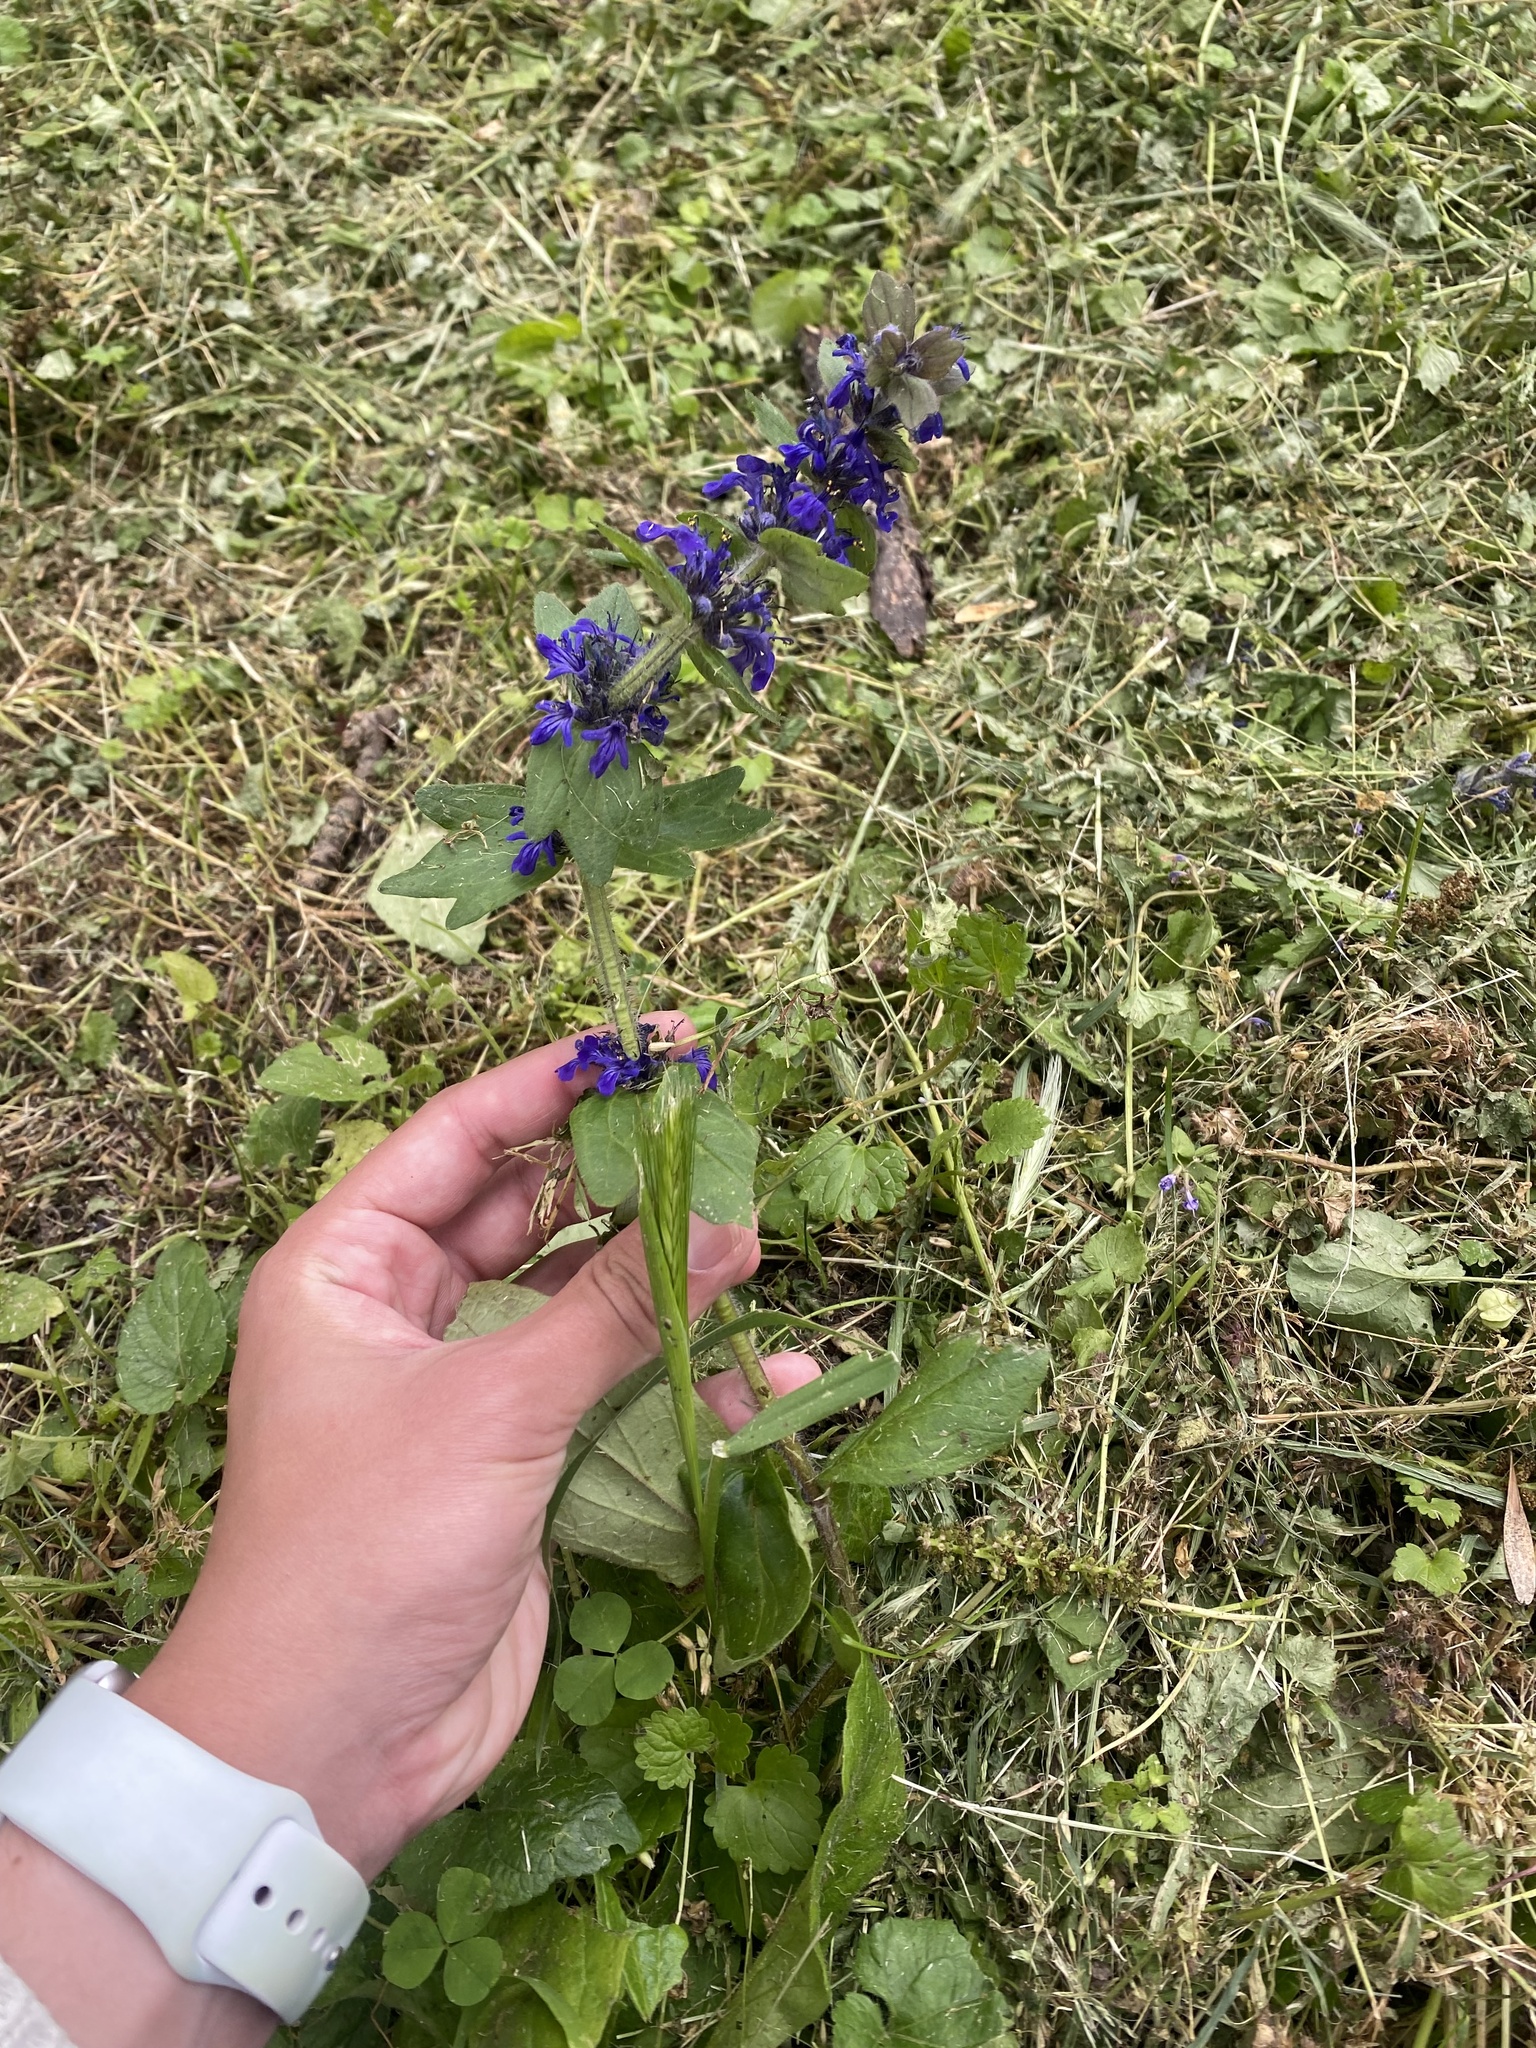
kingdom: Plantae
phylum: Tracheophyta
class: Magnoliopsida
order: Lamiales
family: Lamiaceae
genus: Ajuga
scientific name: Ajuga genevensis
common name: Blue bugle
